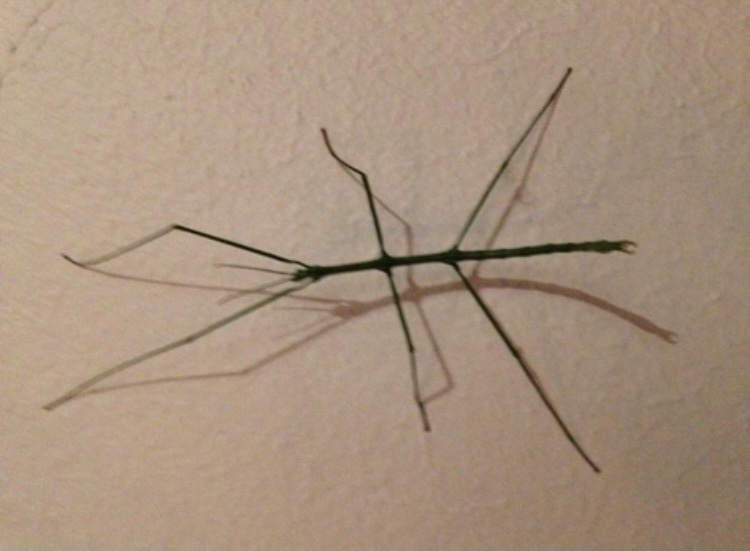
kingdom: Animalia
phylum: Arthropoda
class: Insecta
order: Phasmida
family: Bacillidae
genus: Phalces
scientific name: Phalces brevis
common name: Cape stick insect
